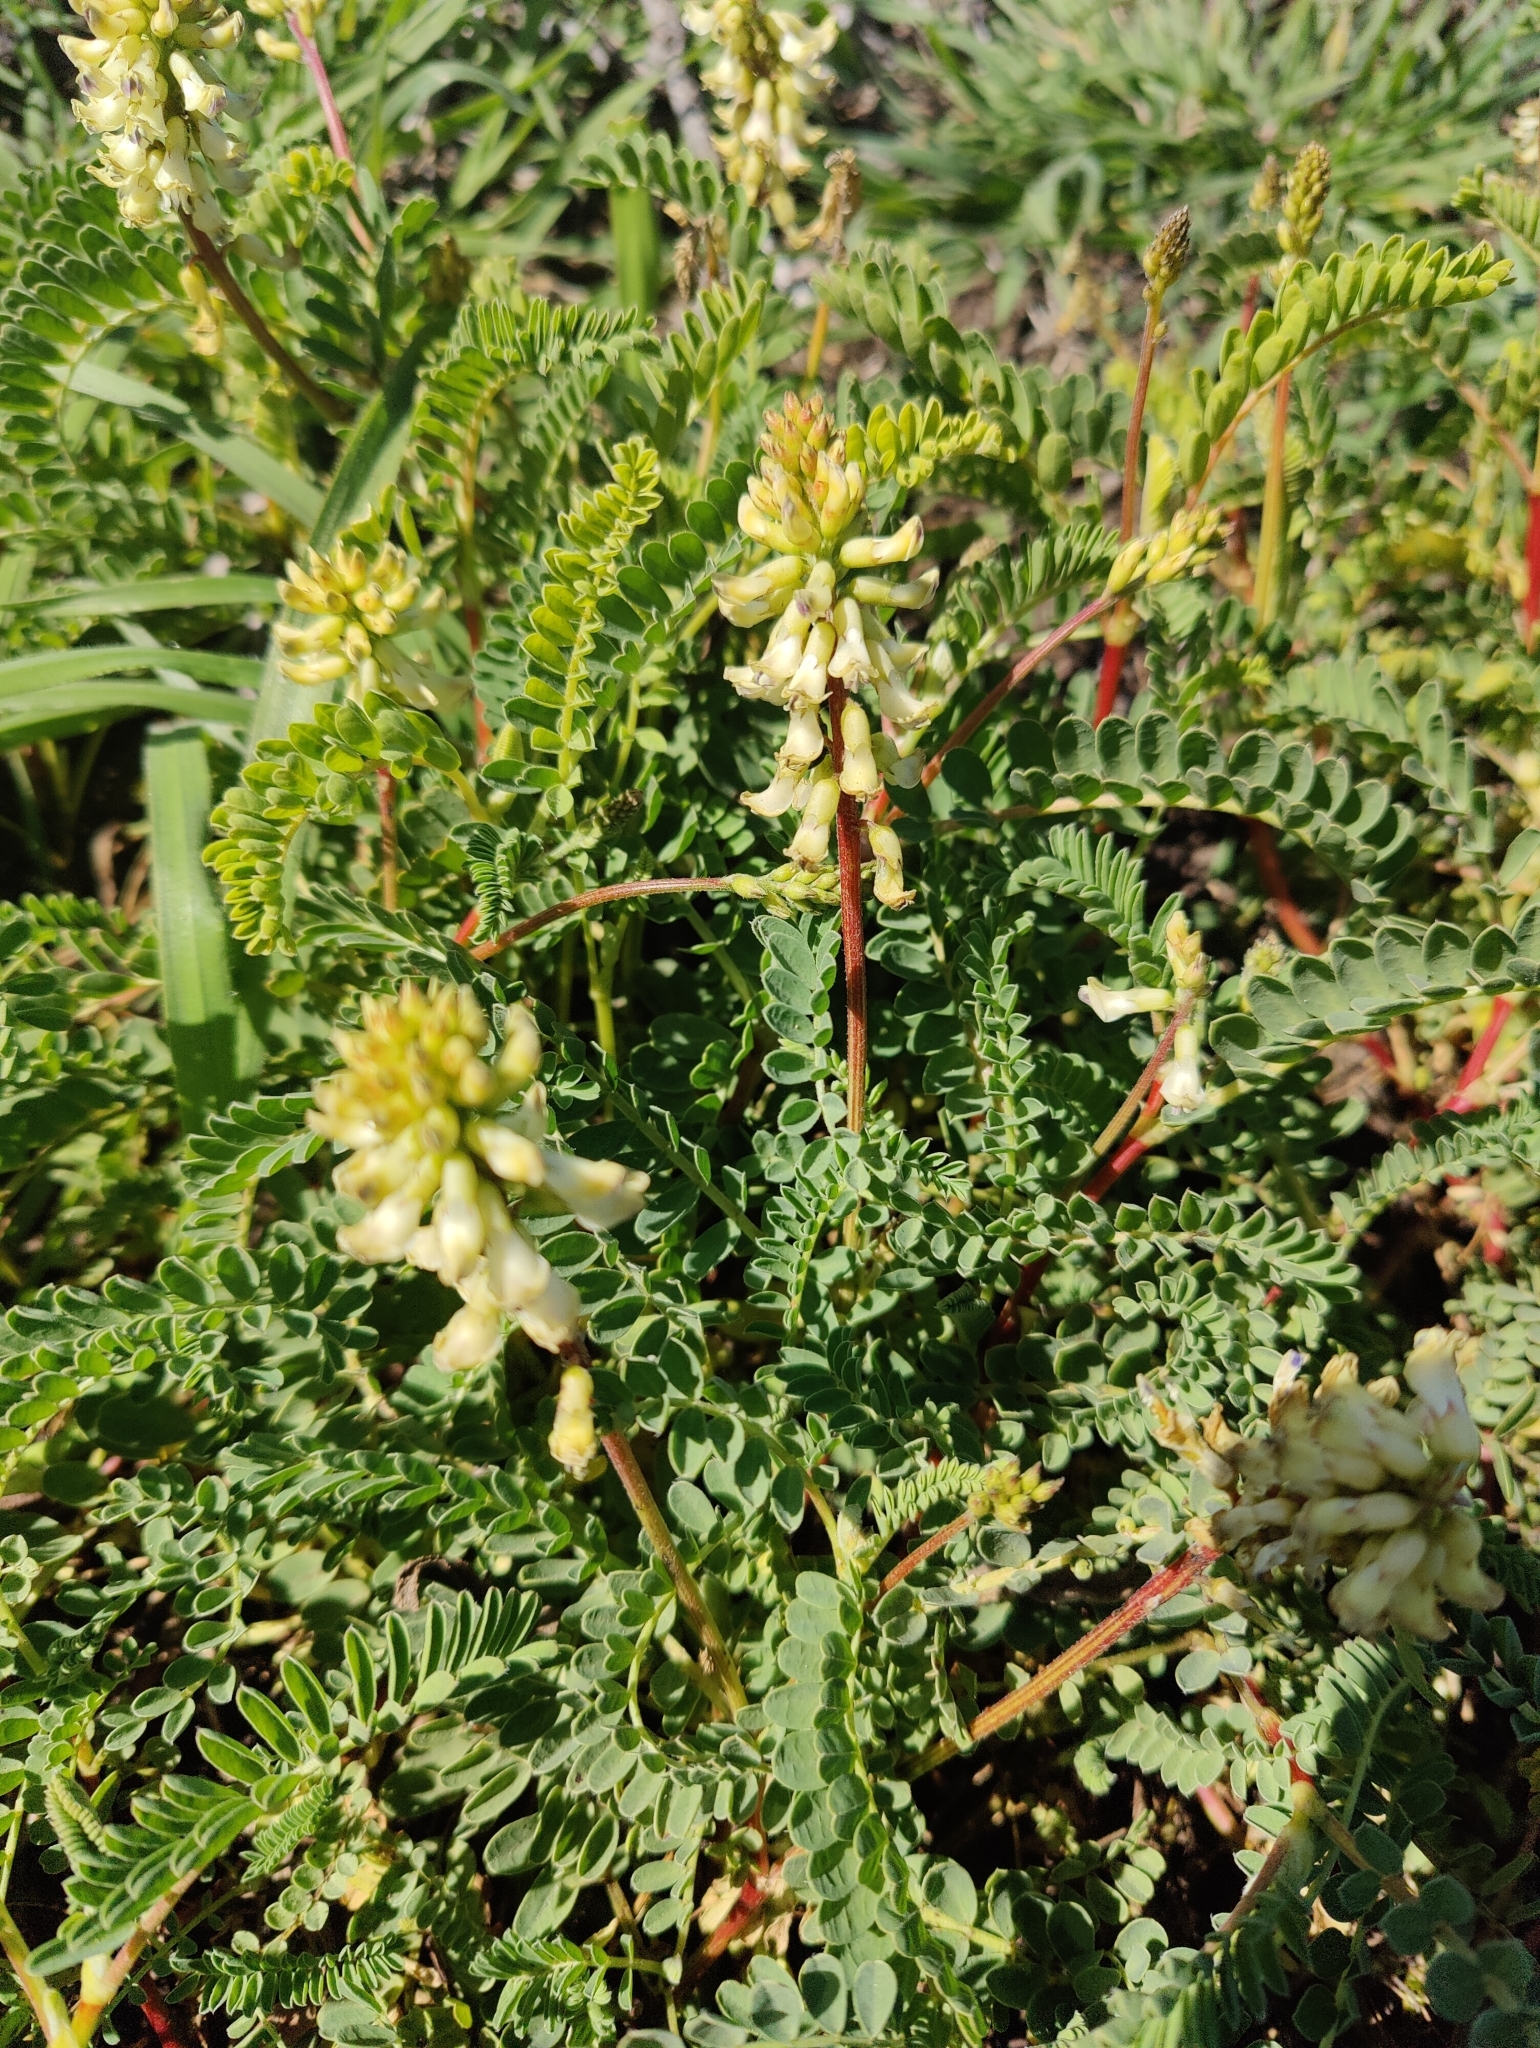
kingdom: Plantae
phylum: Tracheophyta
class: Magnoliopsida
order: Fabales
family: Fabaceae
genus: Astragalus
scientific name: Astragalus nuttallii
